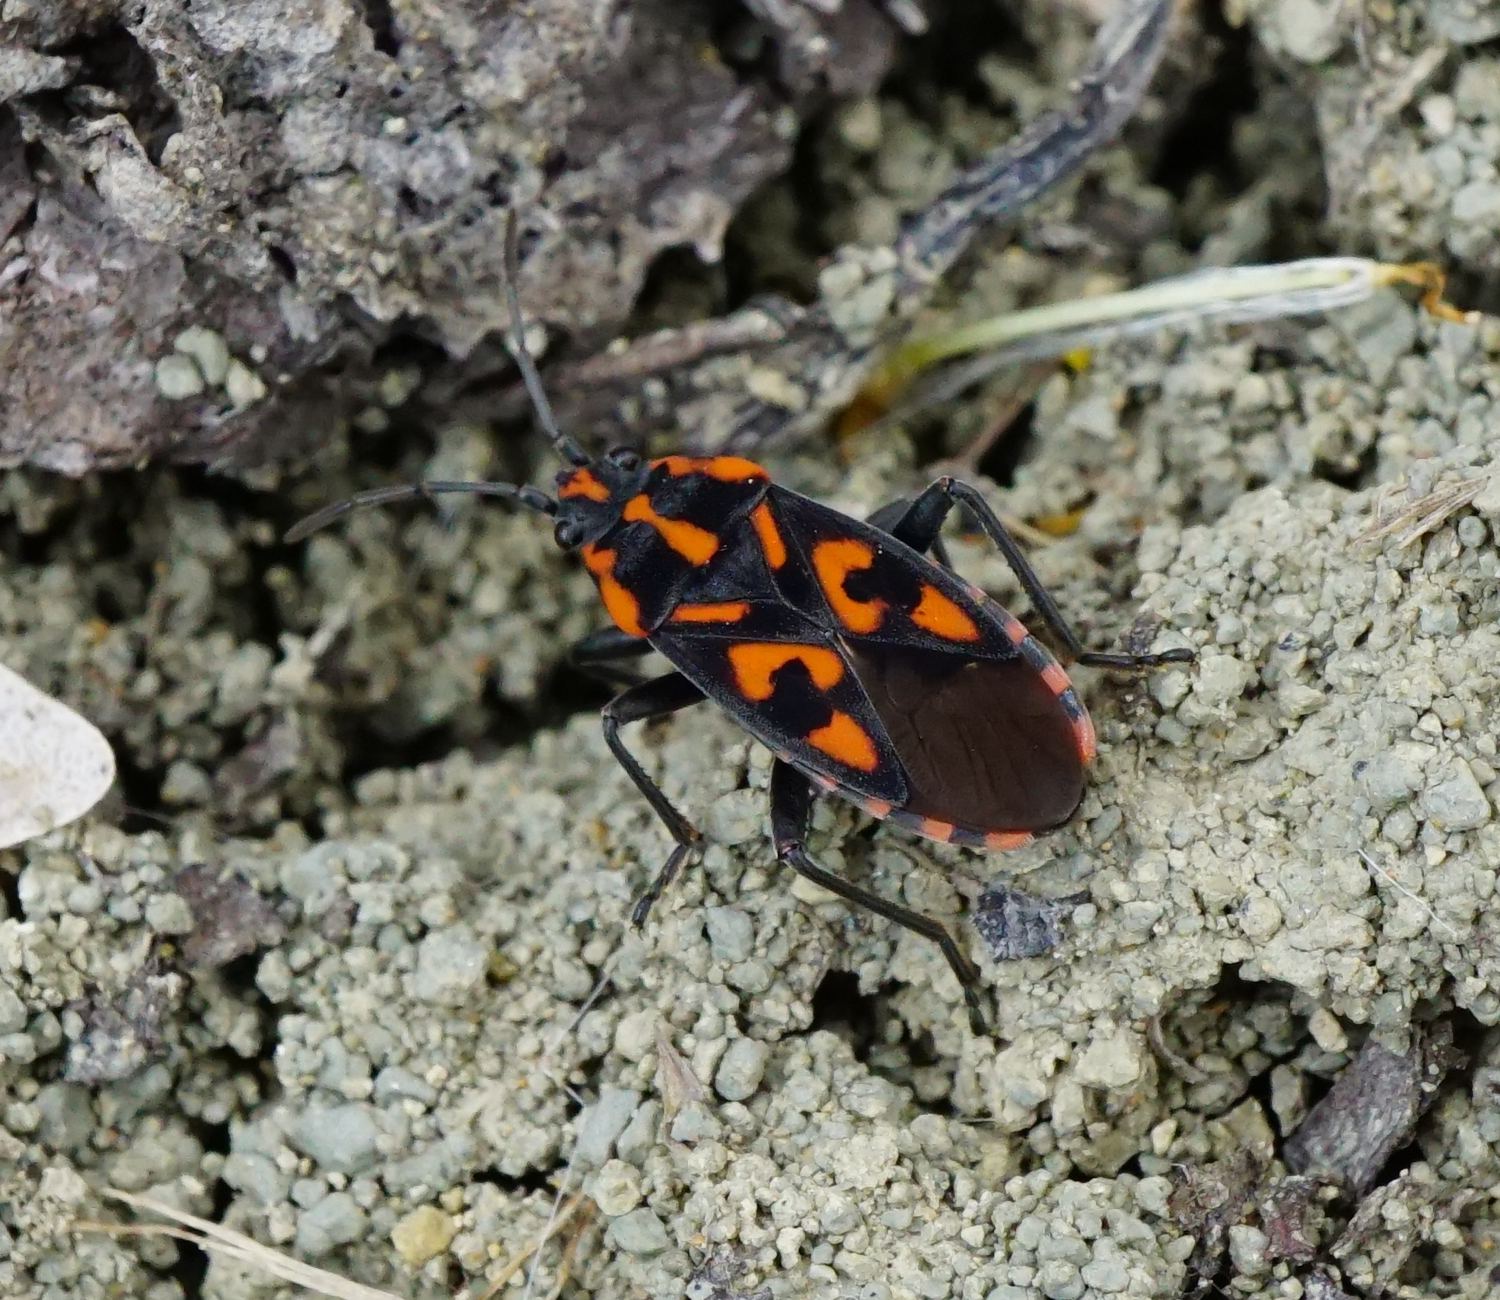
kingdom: Animalia
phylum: Arthropoda
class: Insecta
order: Hemiptera
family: Lygaeidae
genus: Spilostethus
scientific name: Spilostethus saxatilis
